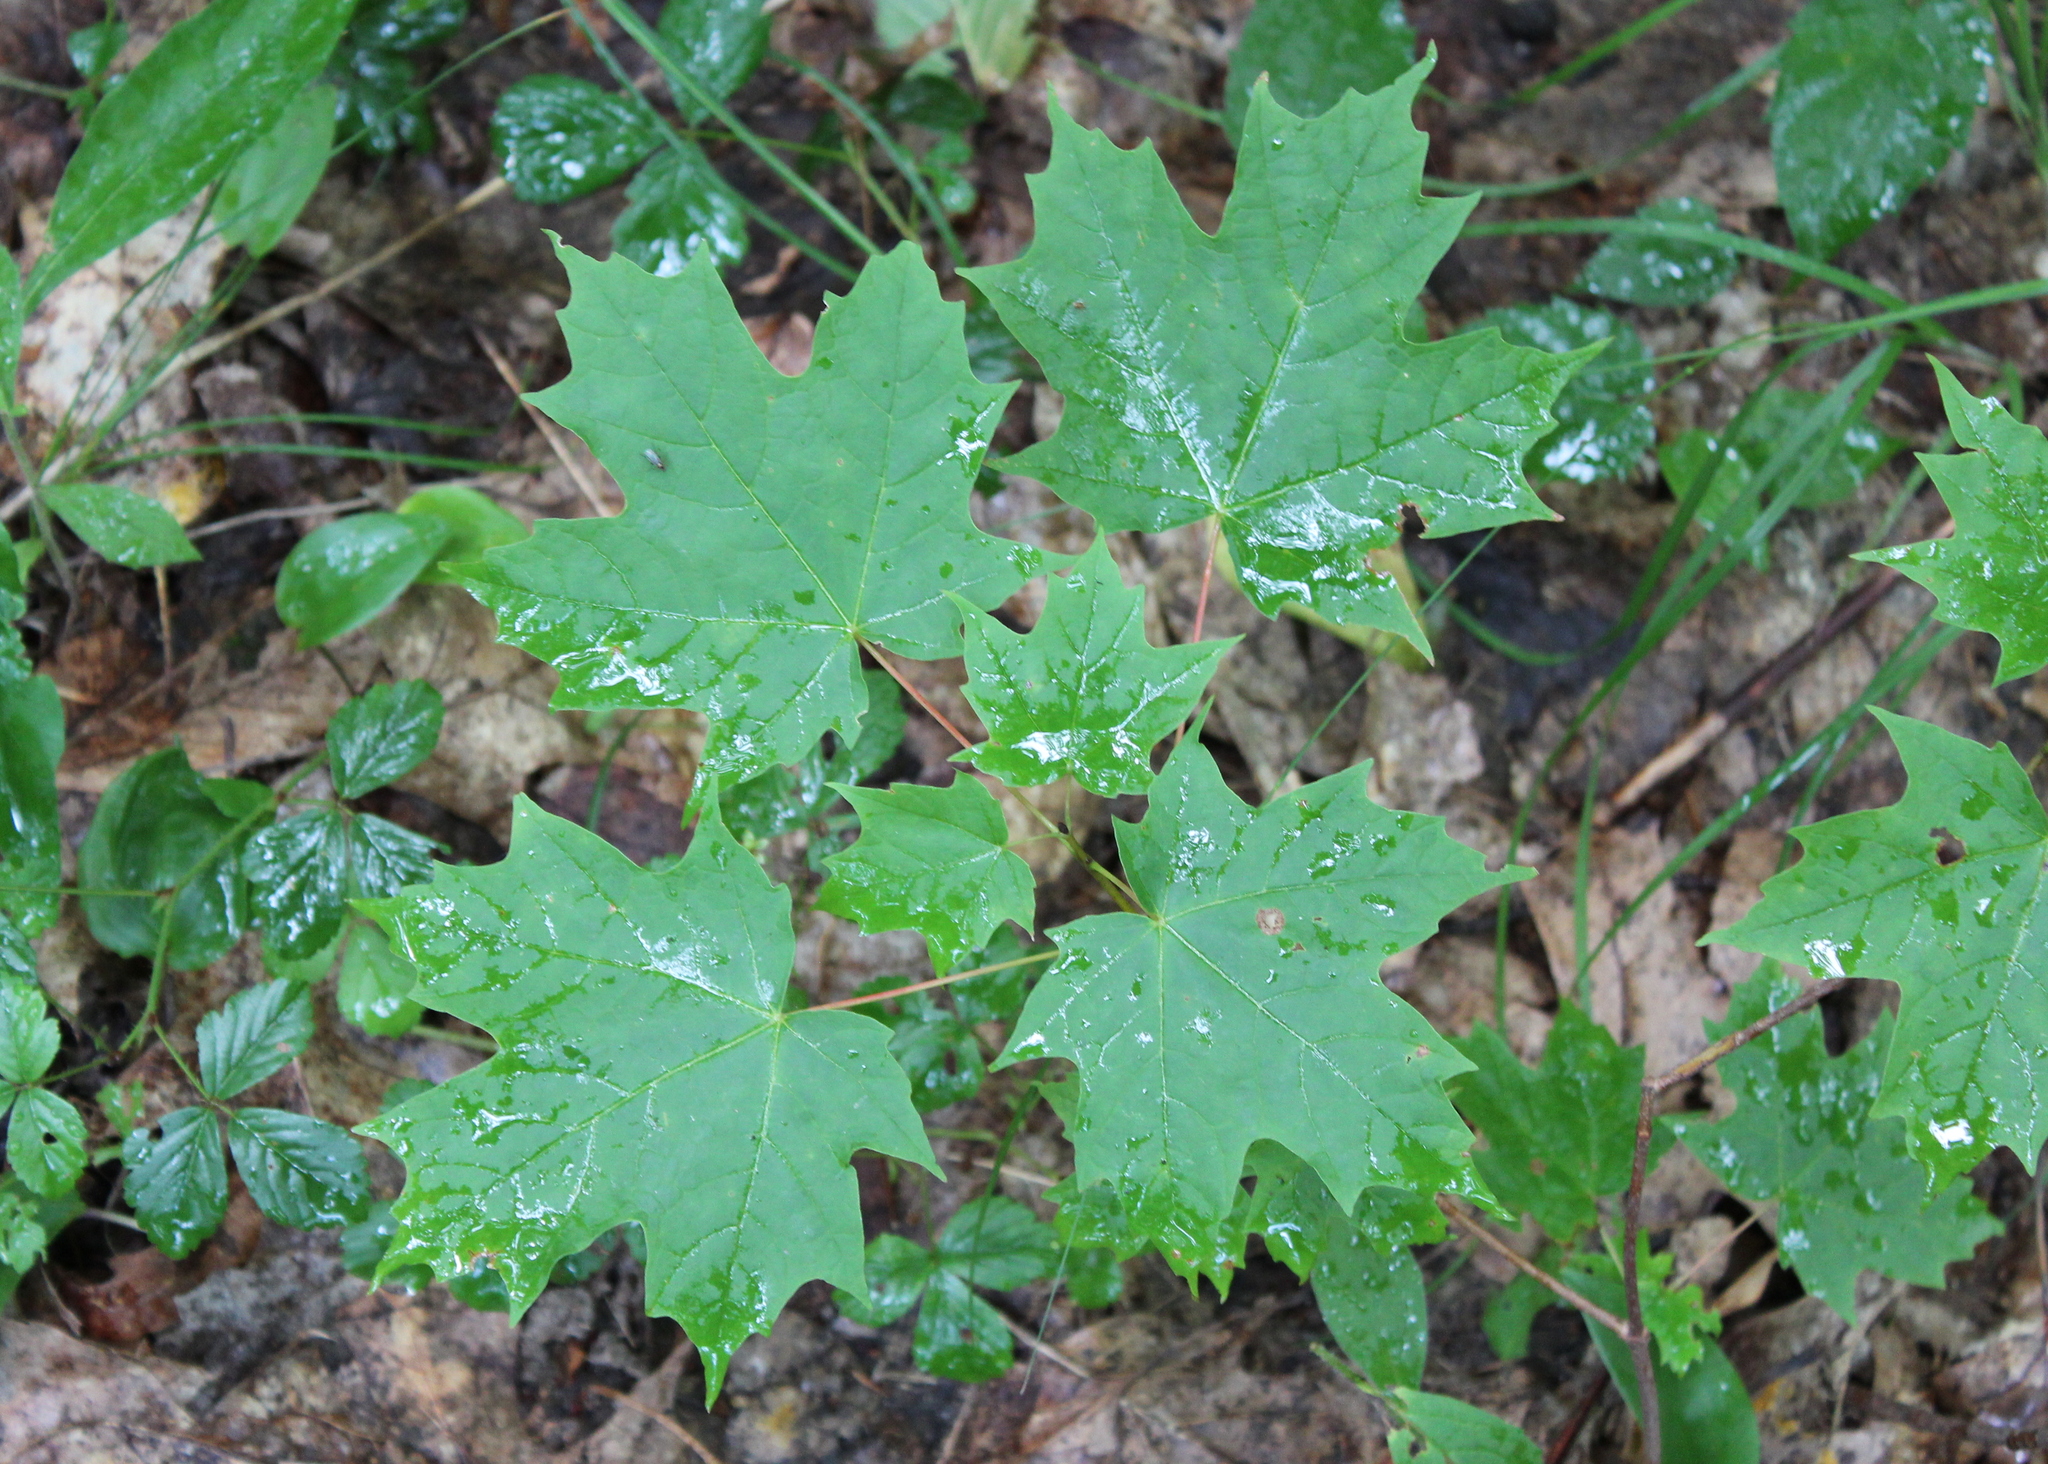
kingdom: Plantae
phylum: Tracheophyta
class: Magnoliopsida
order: Sapindales
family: Sapindaceae
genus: Acer
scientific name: Acer saccharum
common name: Sugar maple
